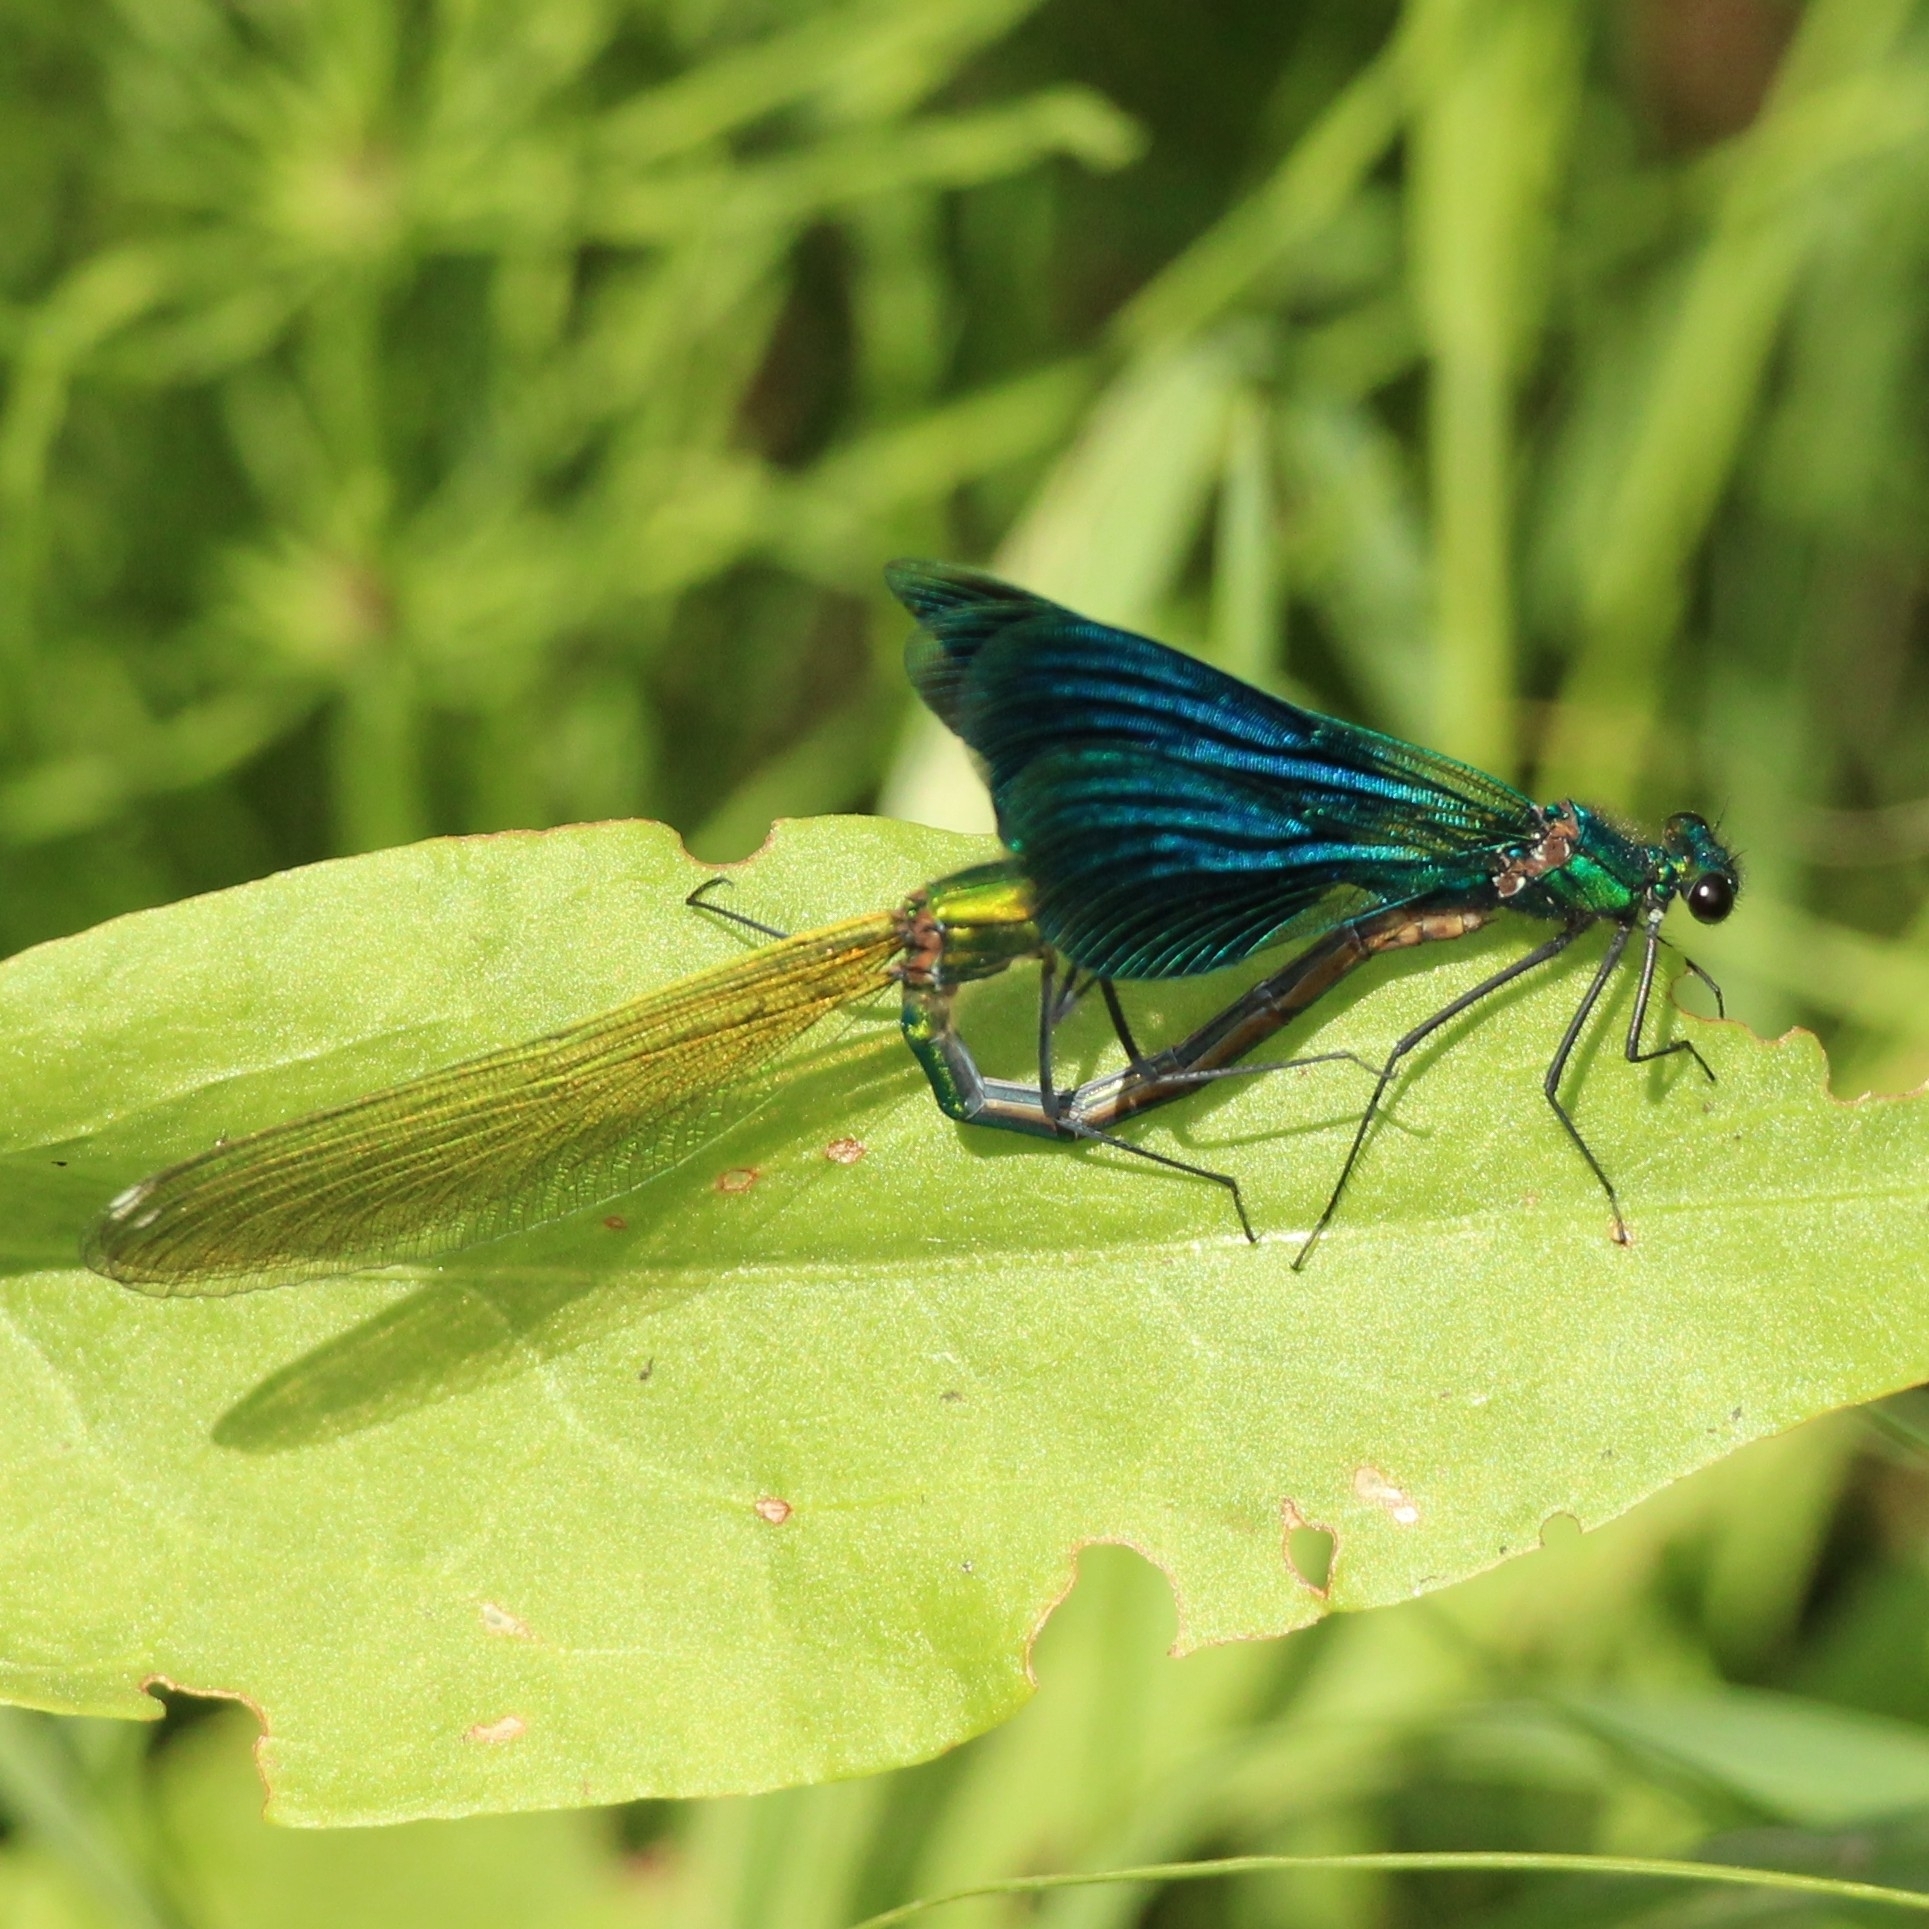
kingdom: Animalia
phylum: Arthropoda
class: Insecta
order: Odonata
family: Calopterygidae
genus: Calopteryx
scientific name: Calopteryx splendens
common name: Banded demoiselle
